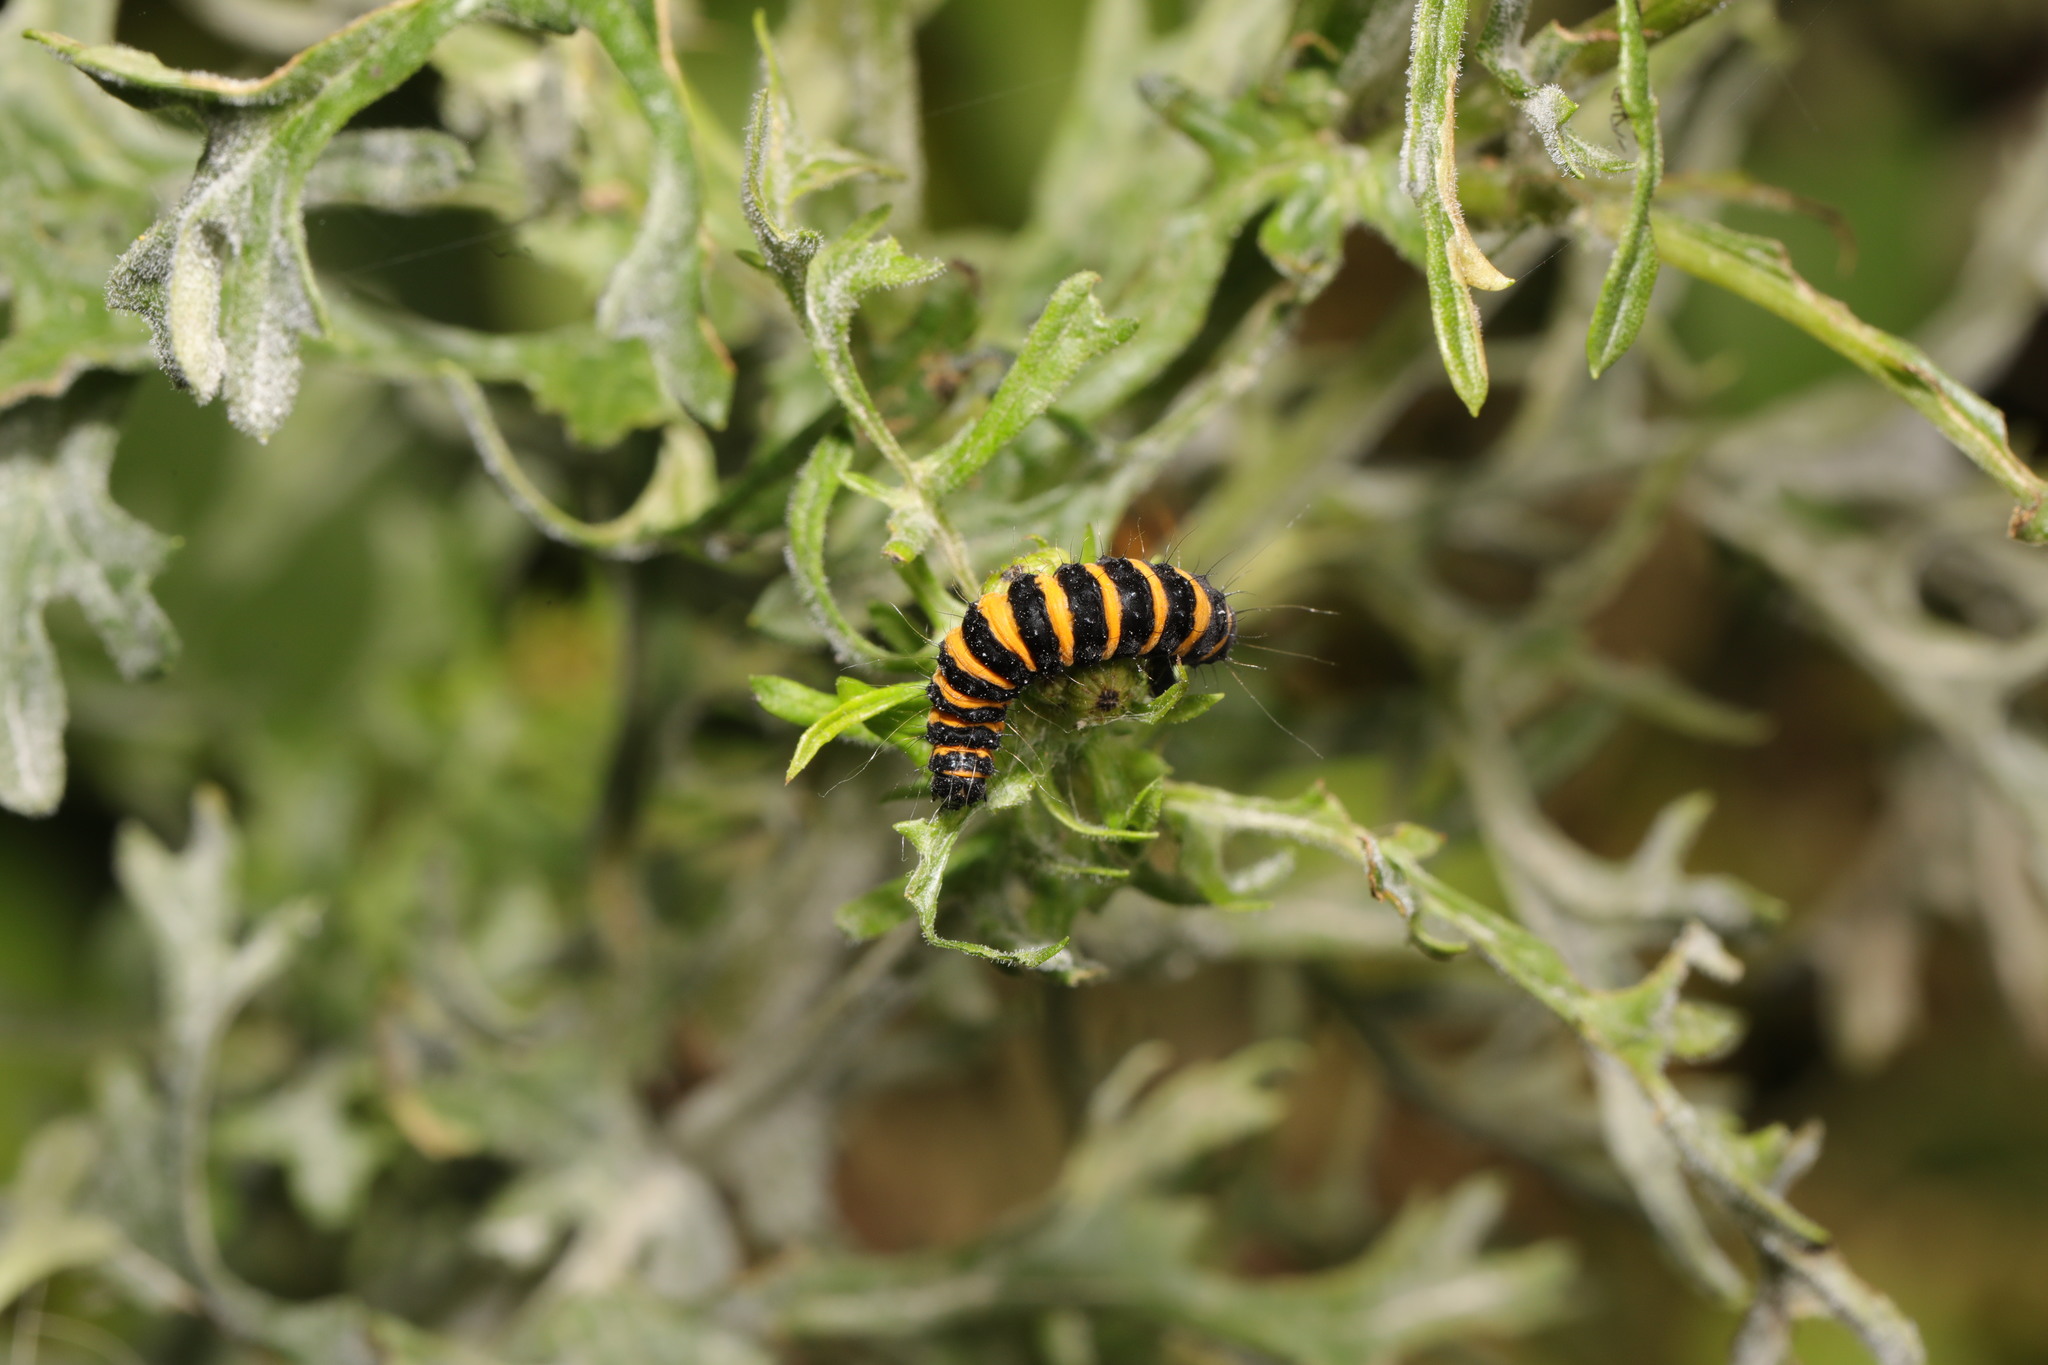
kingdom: Animalia
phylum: Arthropoda
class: Insecta
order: Lepidoptera
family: Erebidae
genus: Tyria
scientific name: Tyria jacobaeae
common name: Cinnabar
